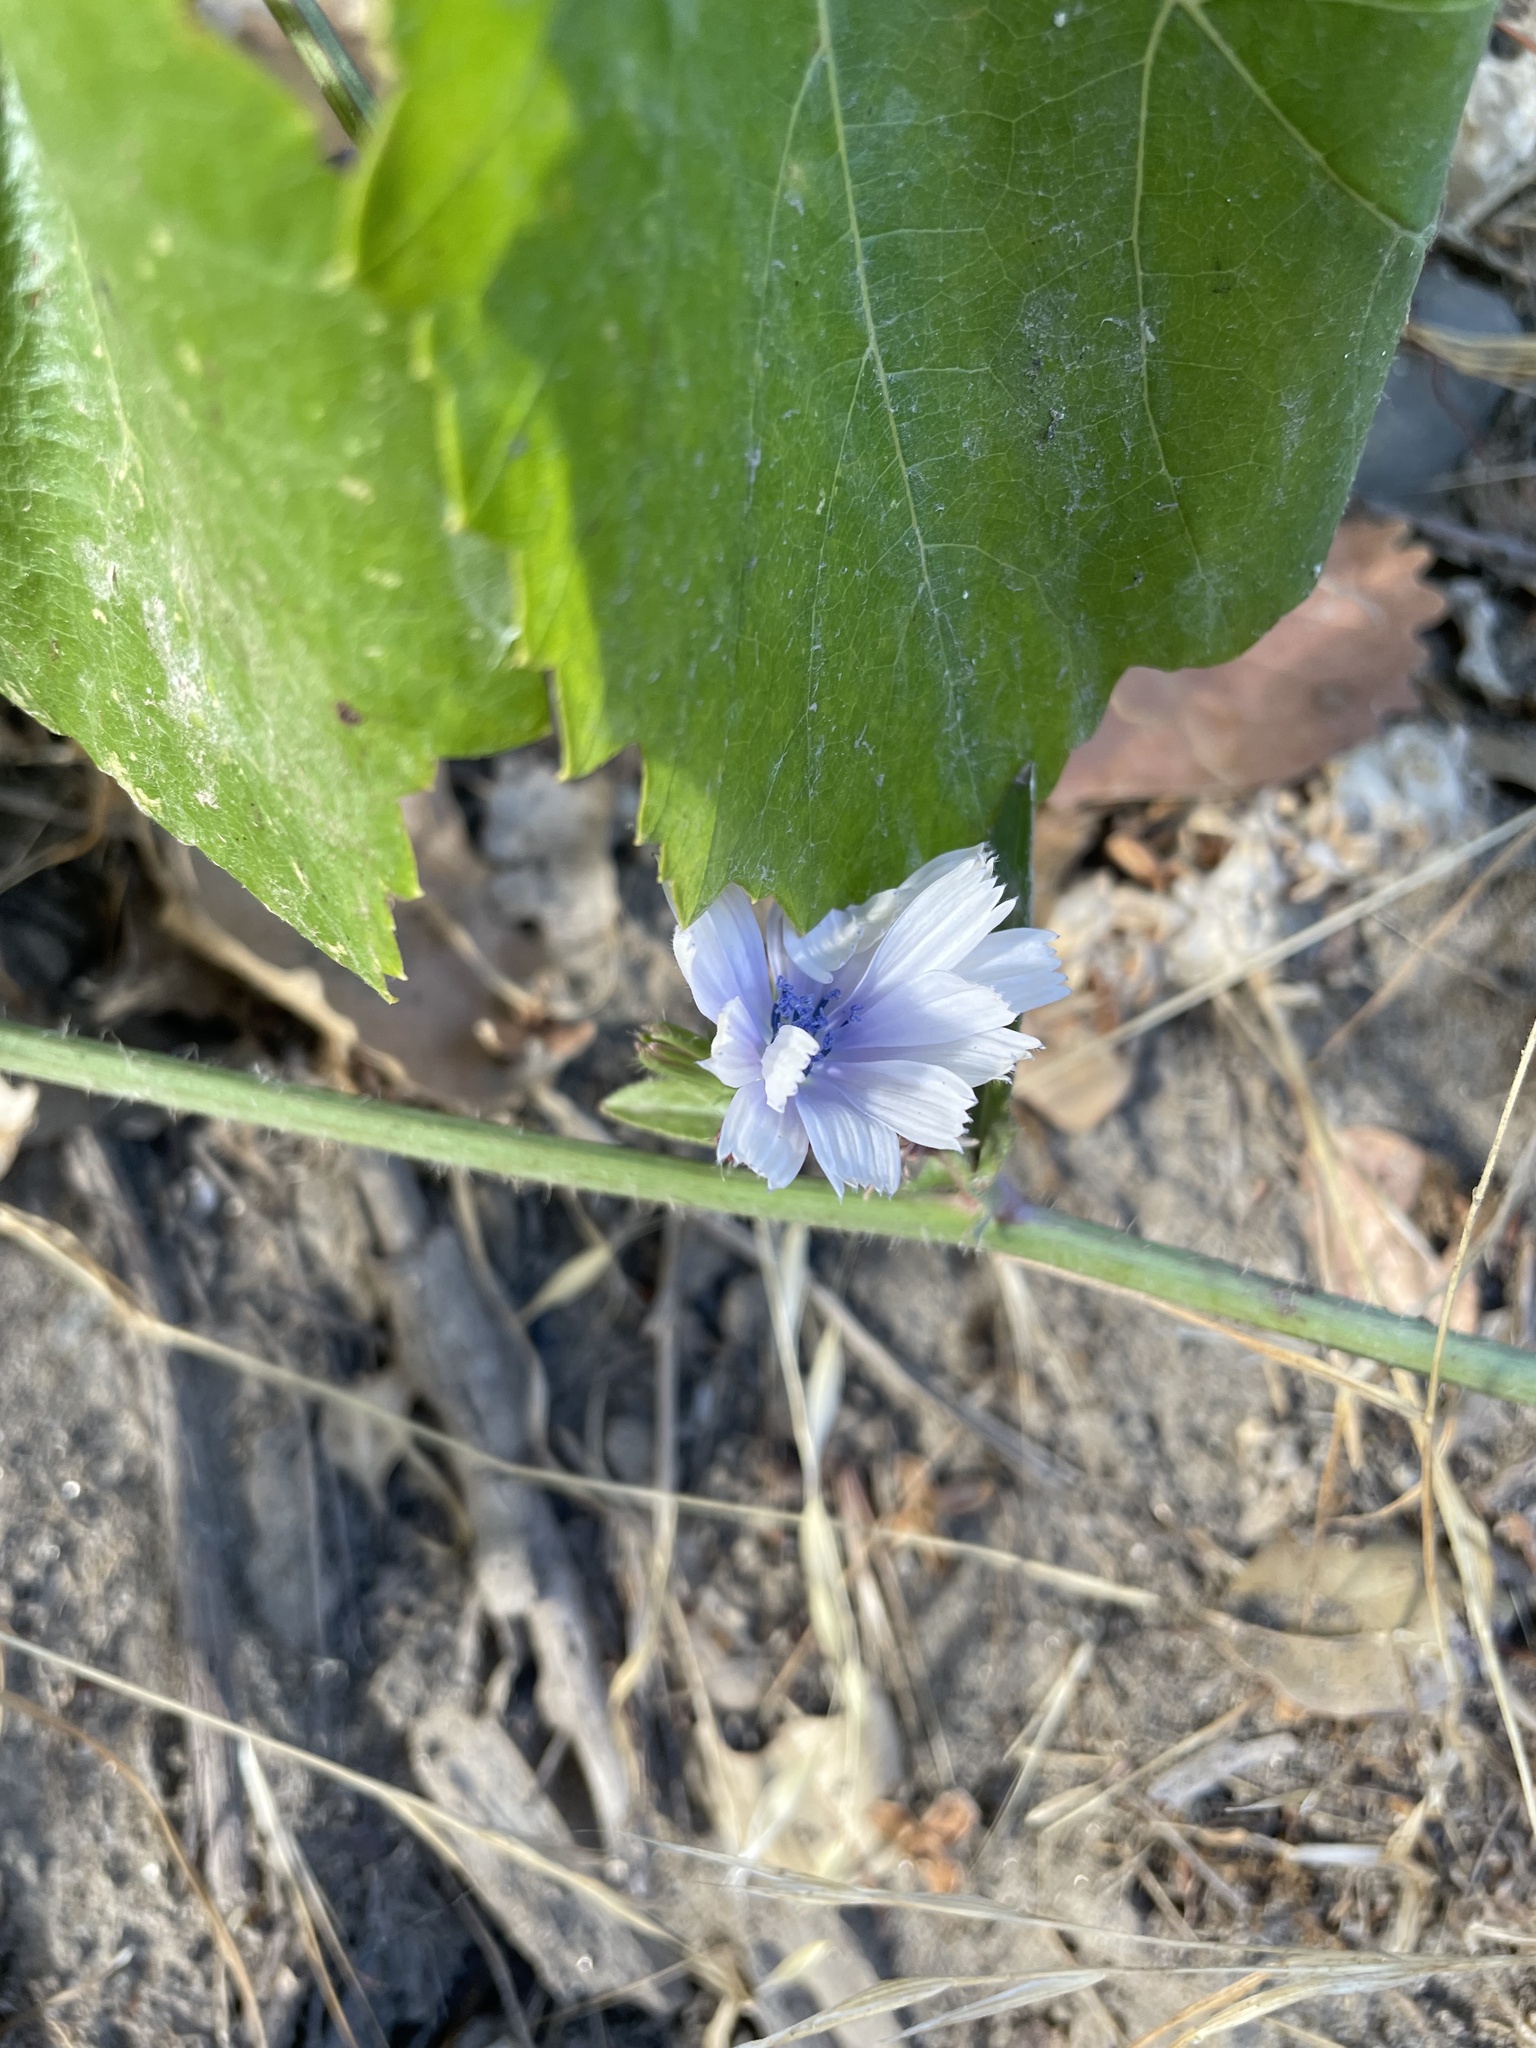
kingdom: Plantae
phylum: Tracheophyta
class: Magnoliopsida
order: Asterales
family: Asteraceae
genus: Cichorium
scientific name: Cichorium intybus
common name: Chicory
